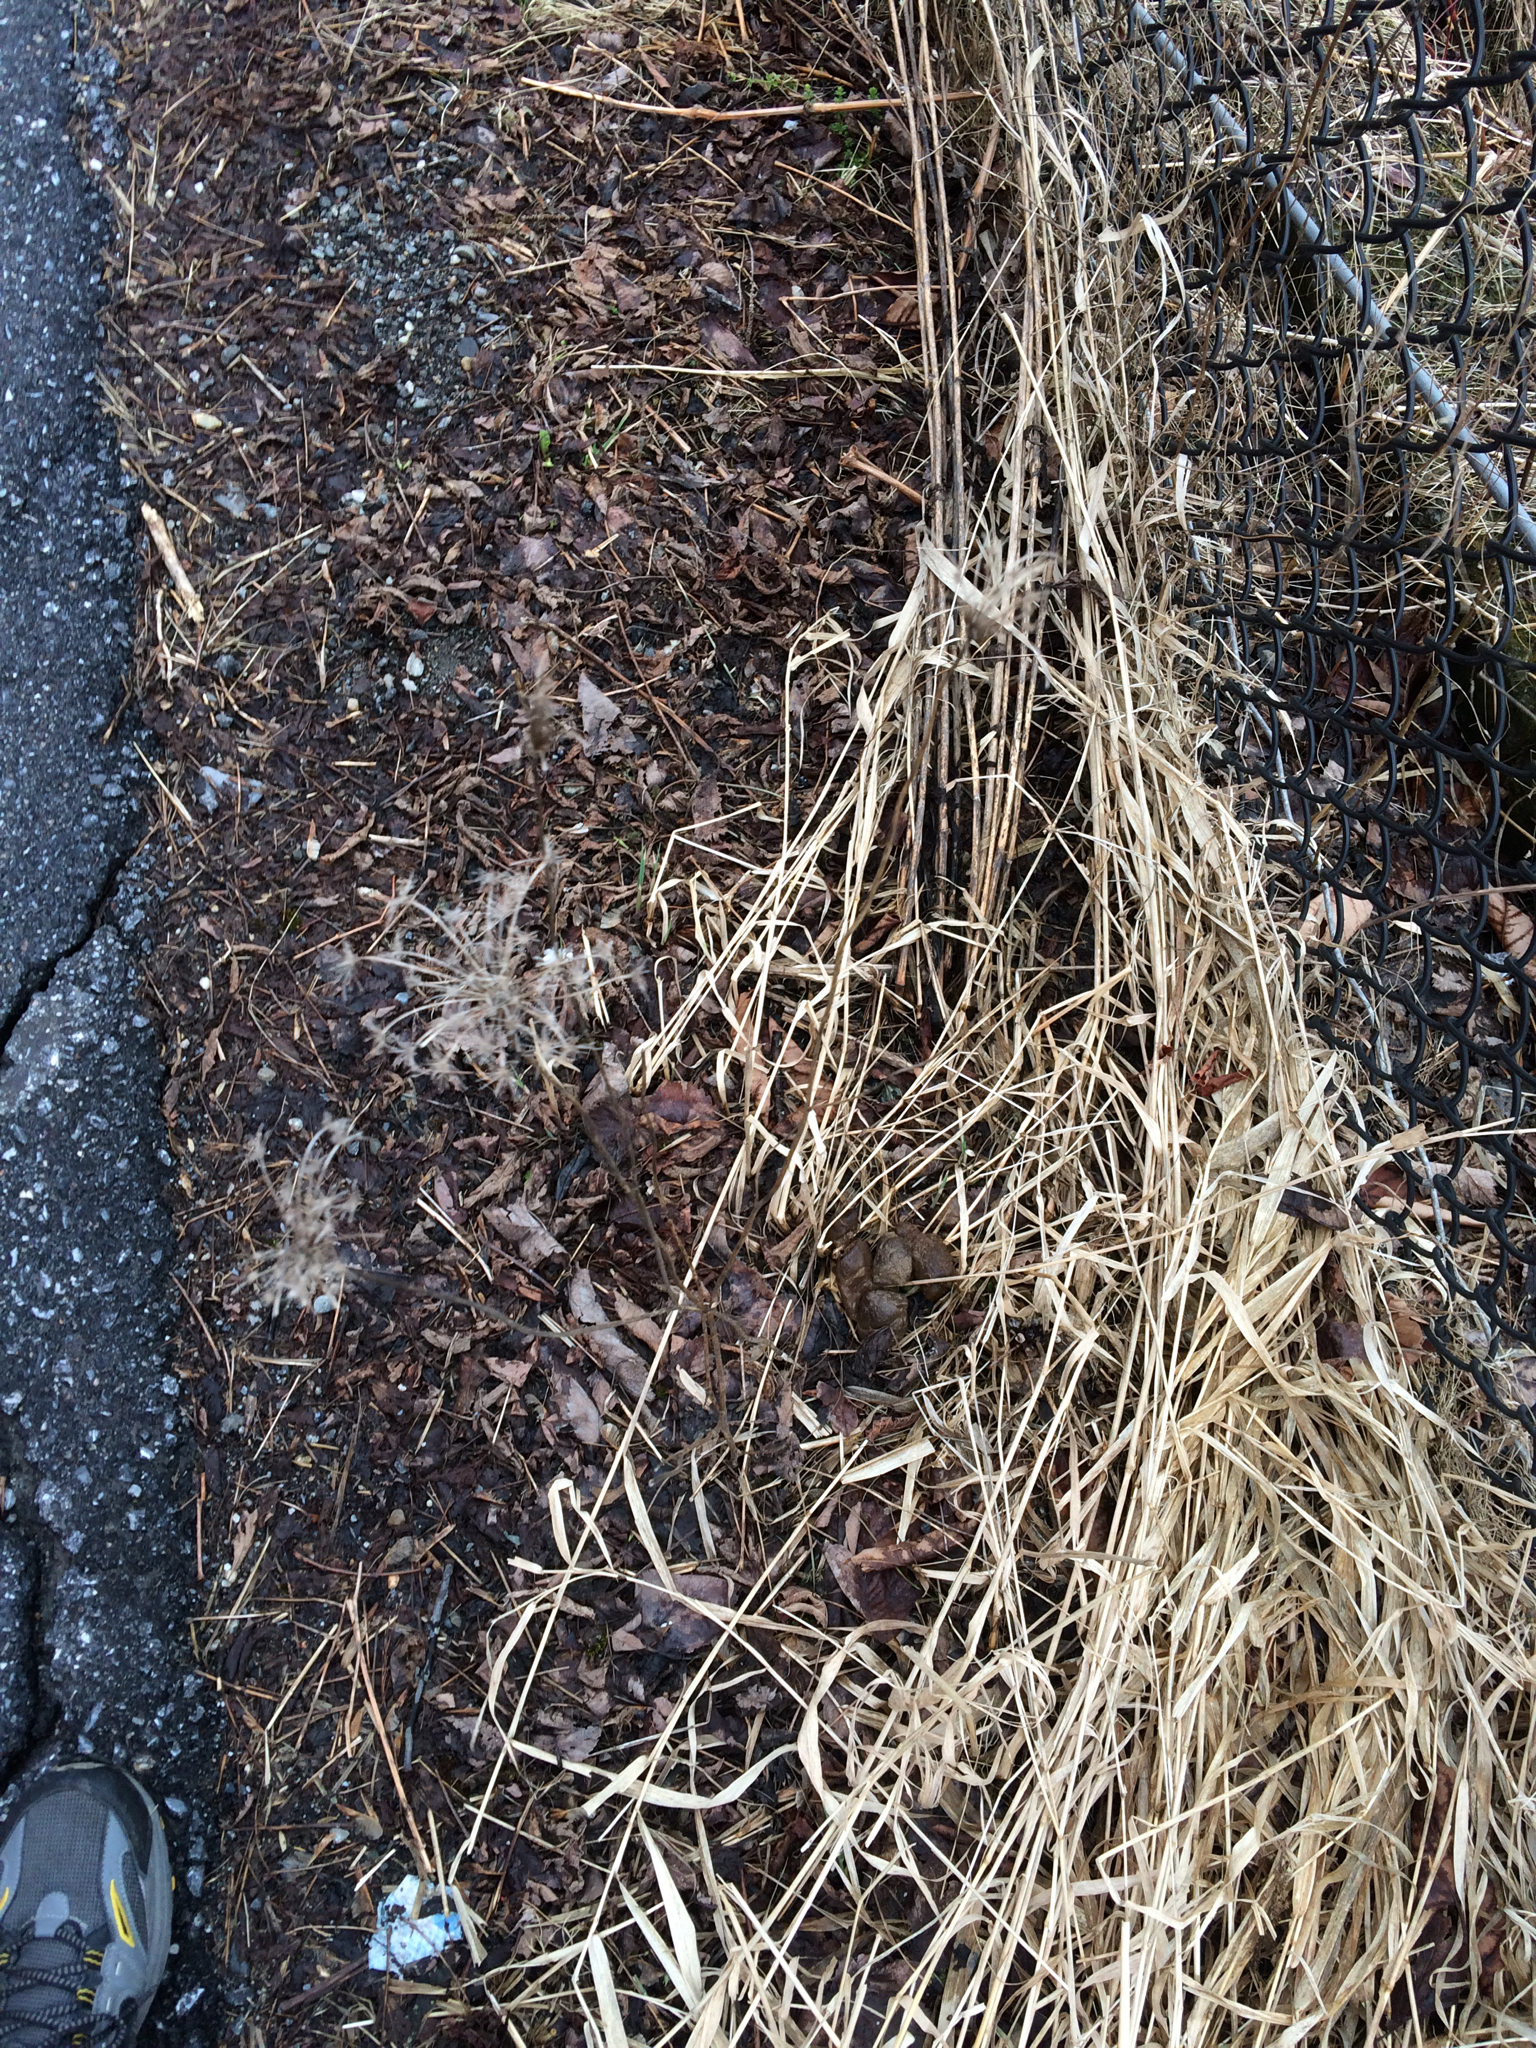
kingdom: Plantae
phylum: Tracheophyta
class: Magnoliopsida
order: Apiales
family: Apiaceae
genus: Daucus
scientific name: Daucus carota
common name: Wild carrot
